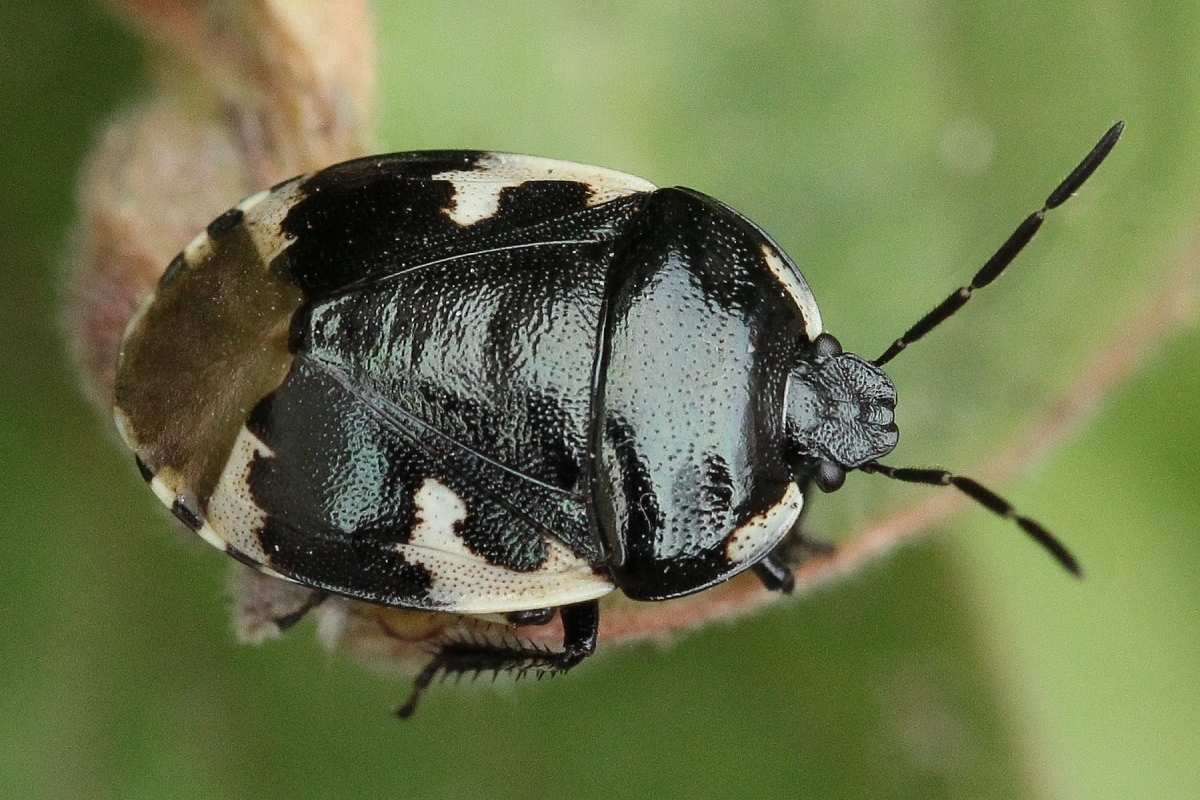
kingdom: Animalia
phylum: Arthropoda
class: Insecta
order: Hemiptera
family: Cydnidae
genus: Tritomegas
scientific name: Tritomegas bicolor
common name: Pied shieldbug
